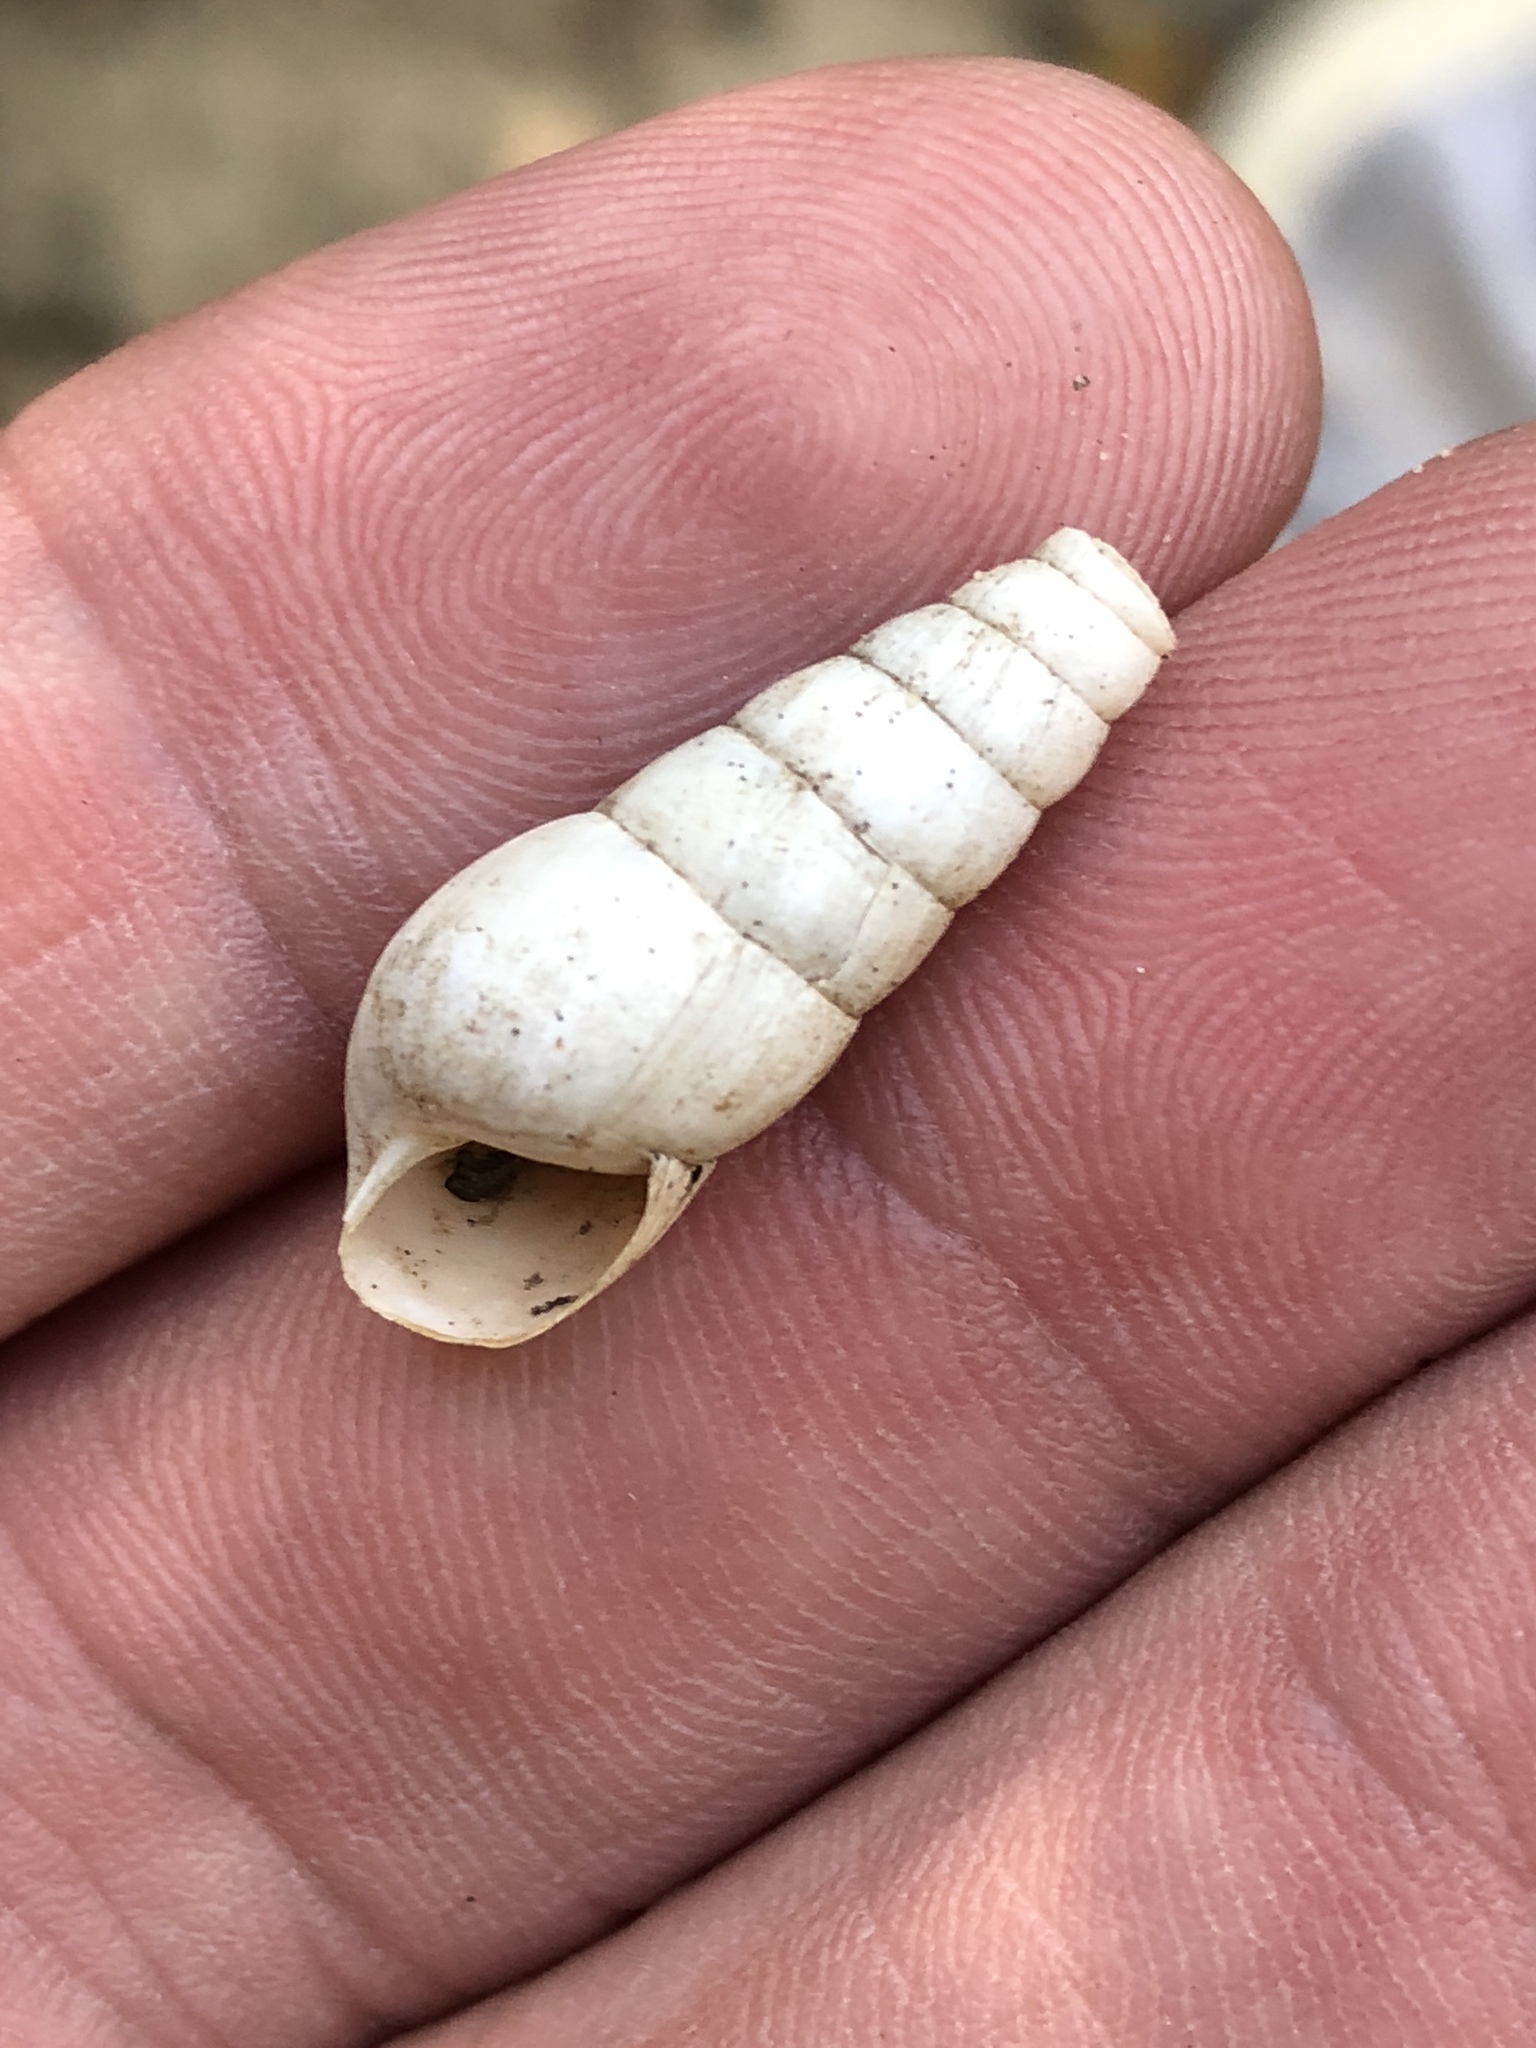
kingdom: Animalia
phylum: Mollusca
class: Gastropoda
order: Stylommatophora
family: Achatinidae
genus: Rumina
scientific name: Rumina decollata
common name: Decollate snail
